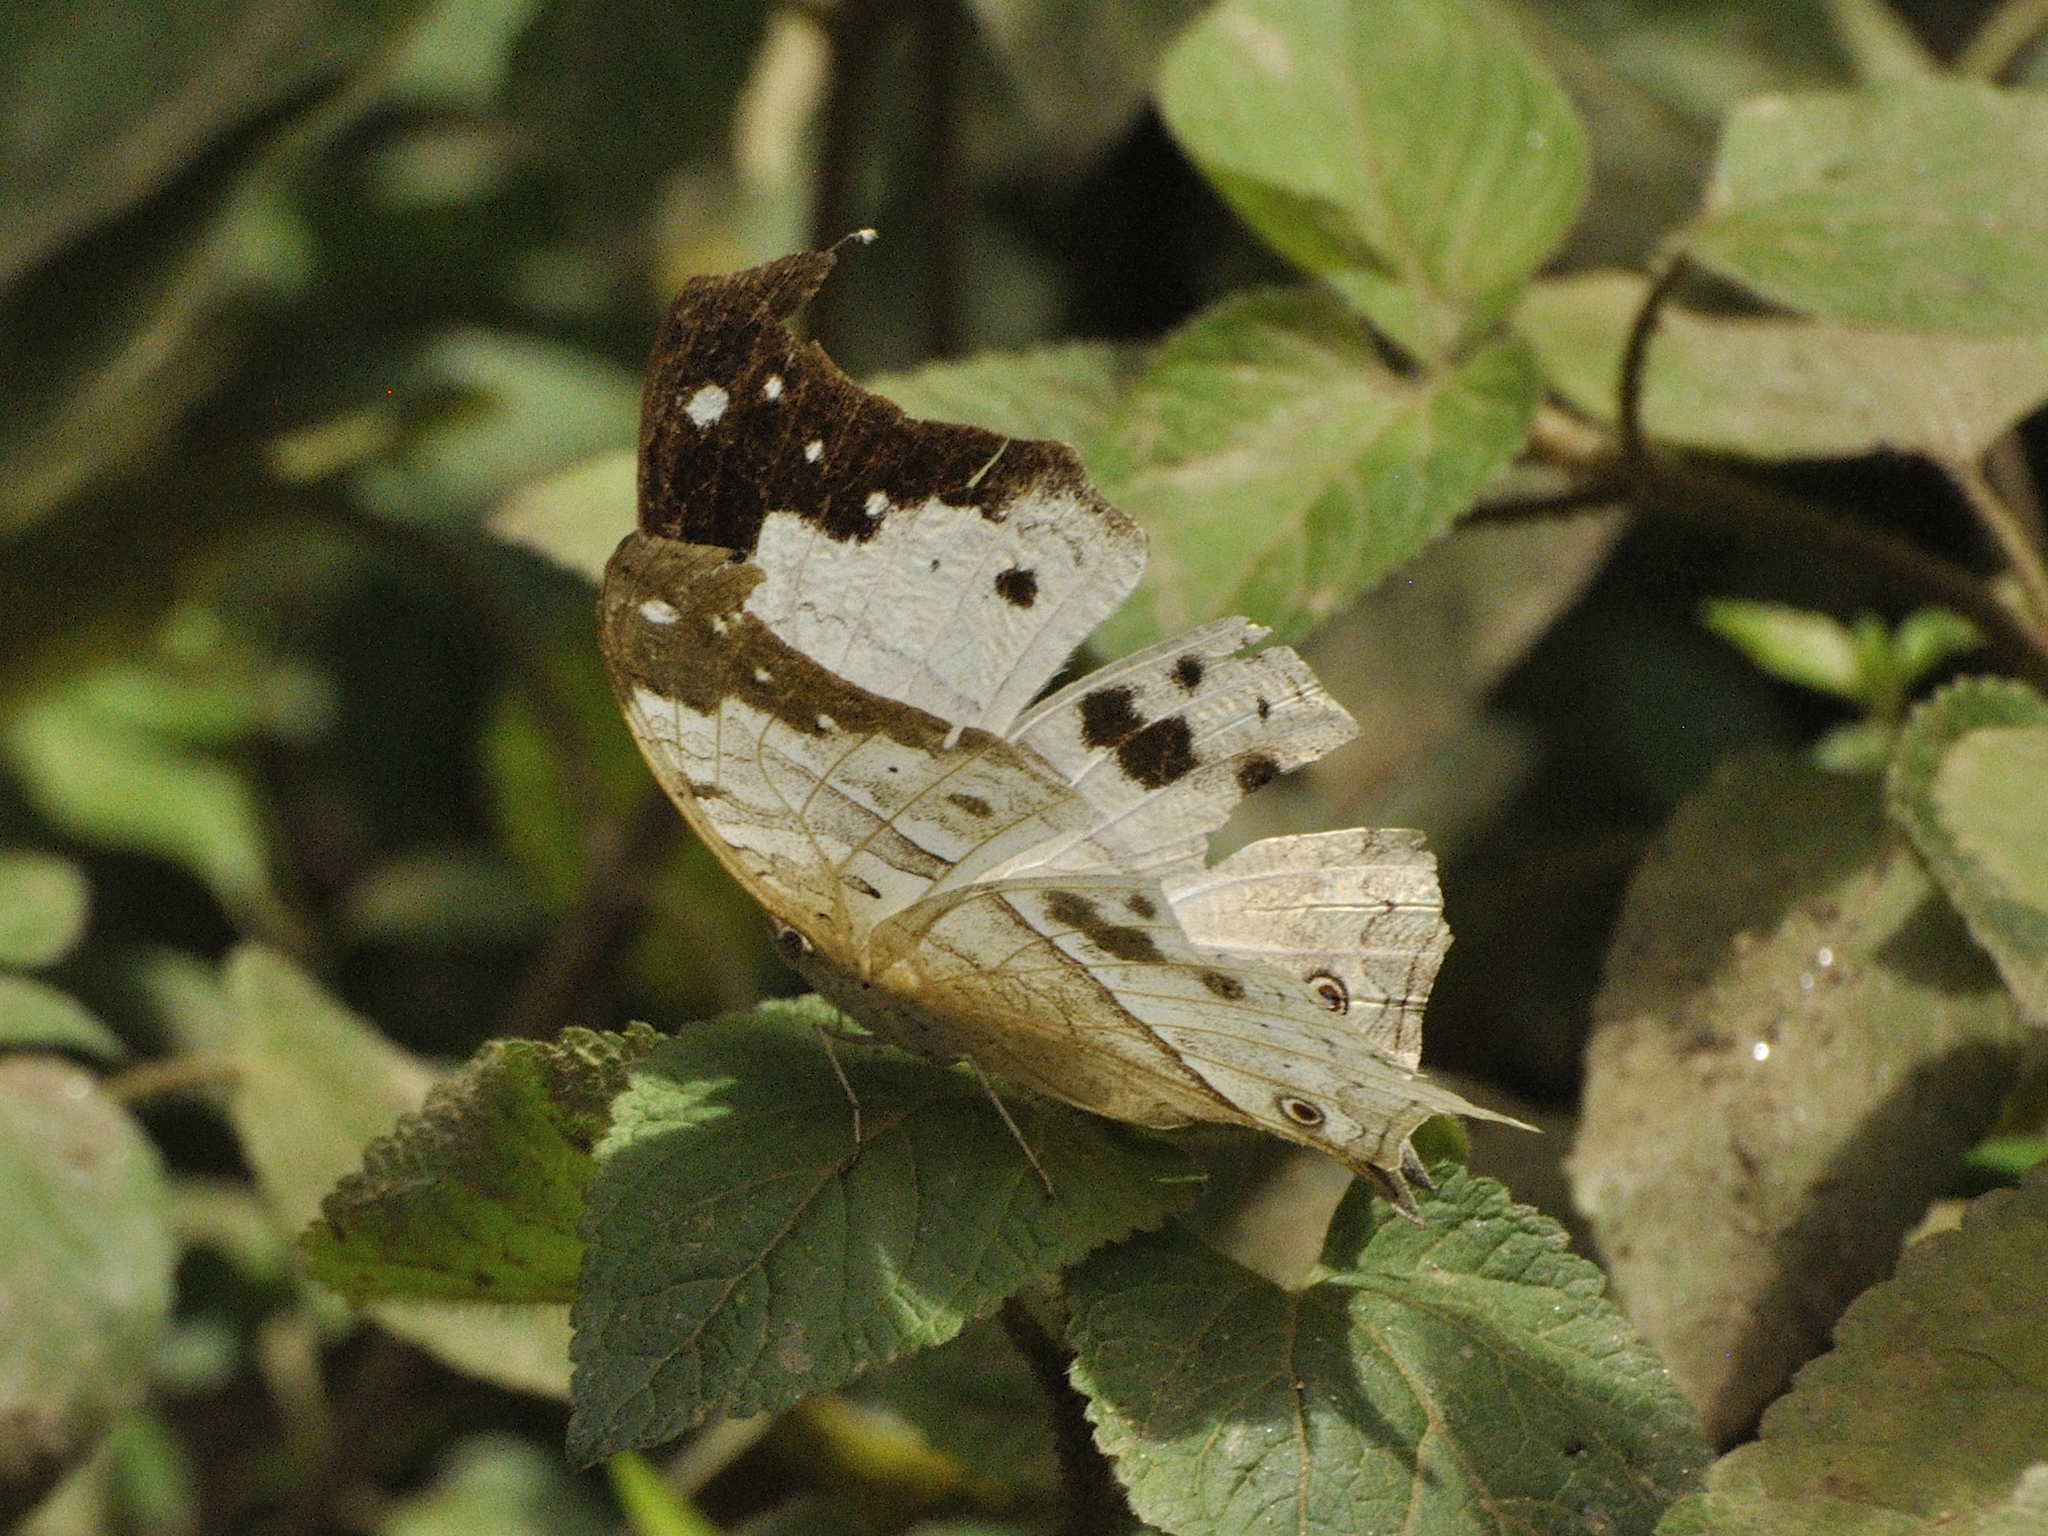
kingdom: Animalia
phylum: Arthropoda
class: Insecta
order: Lepidoptera
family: Nymphalidae
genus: Salamis
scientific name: Salamis Protogoniomorpha duprei
